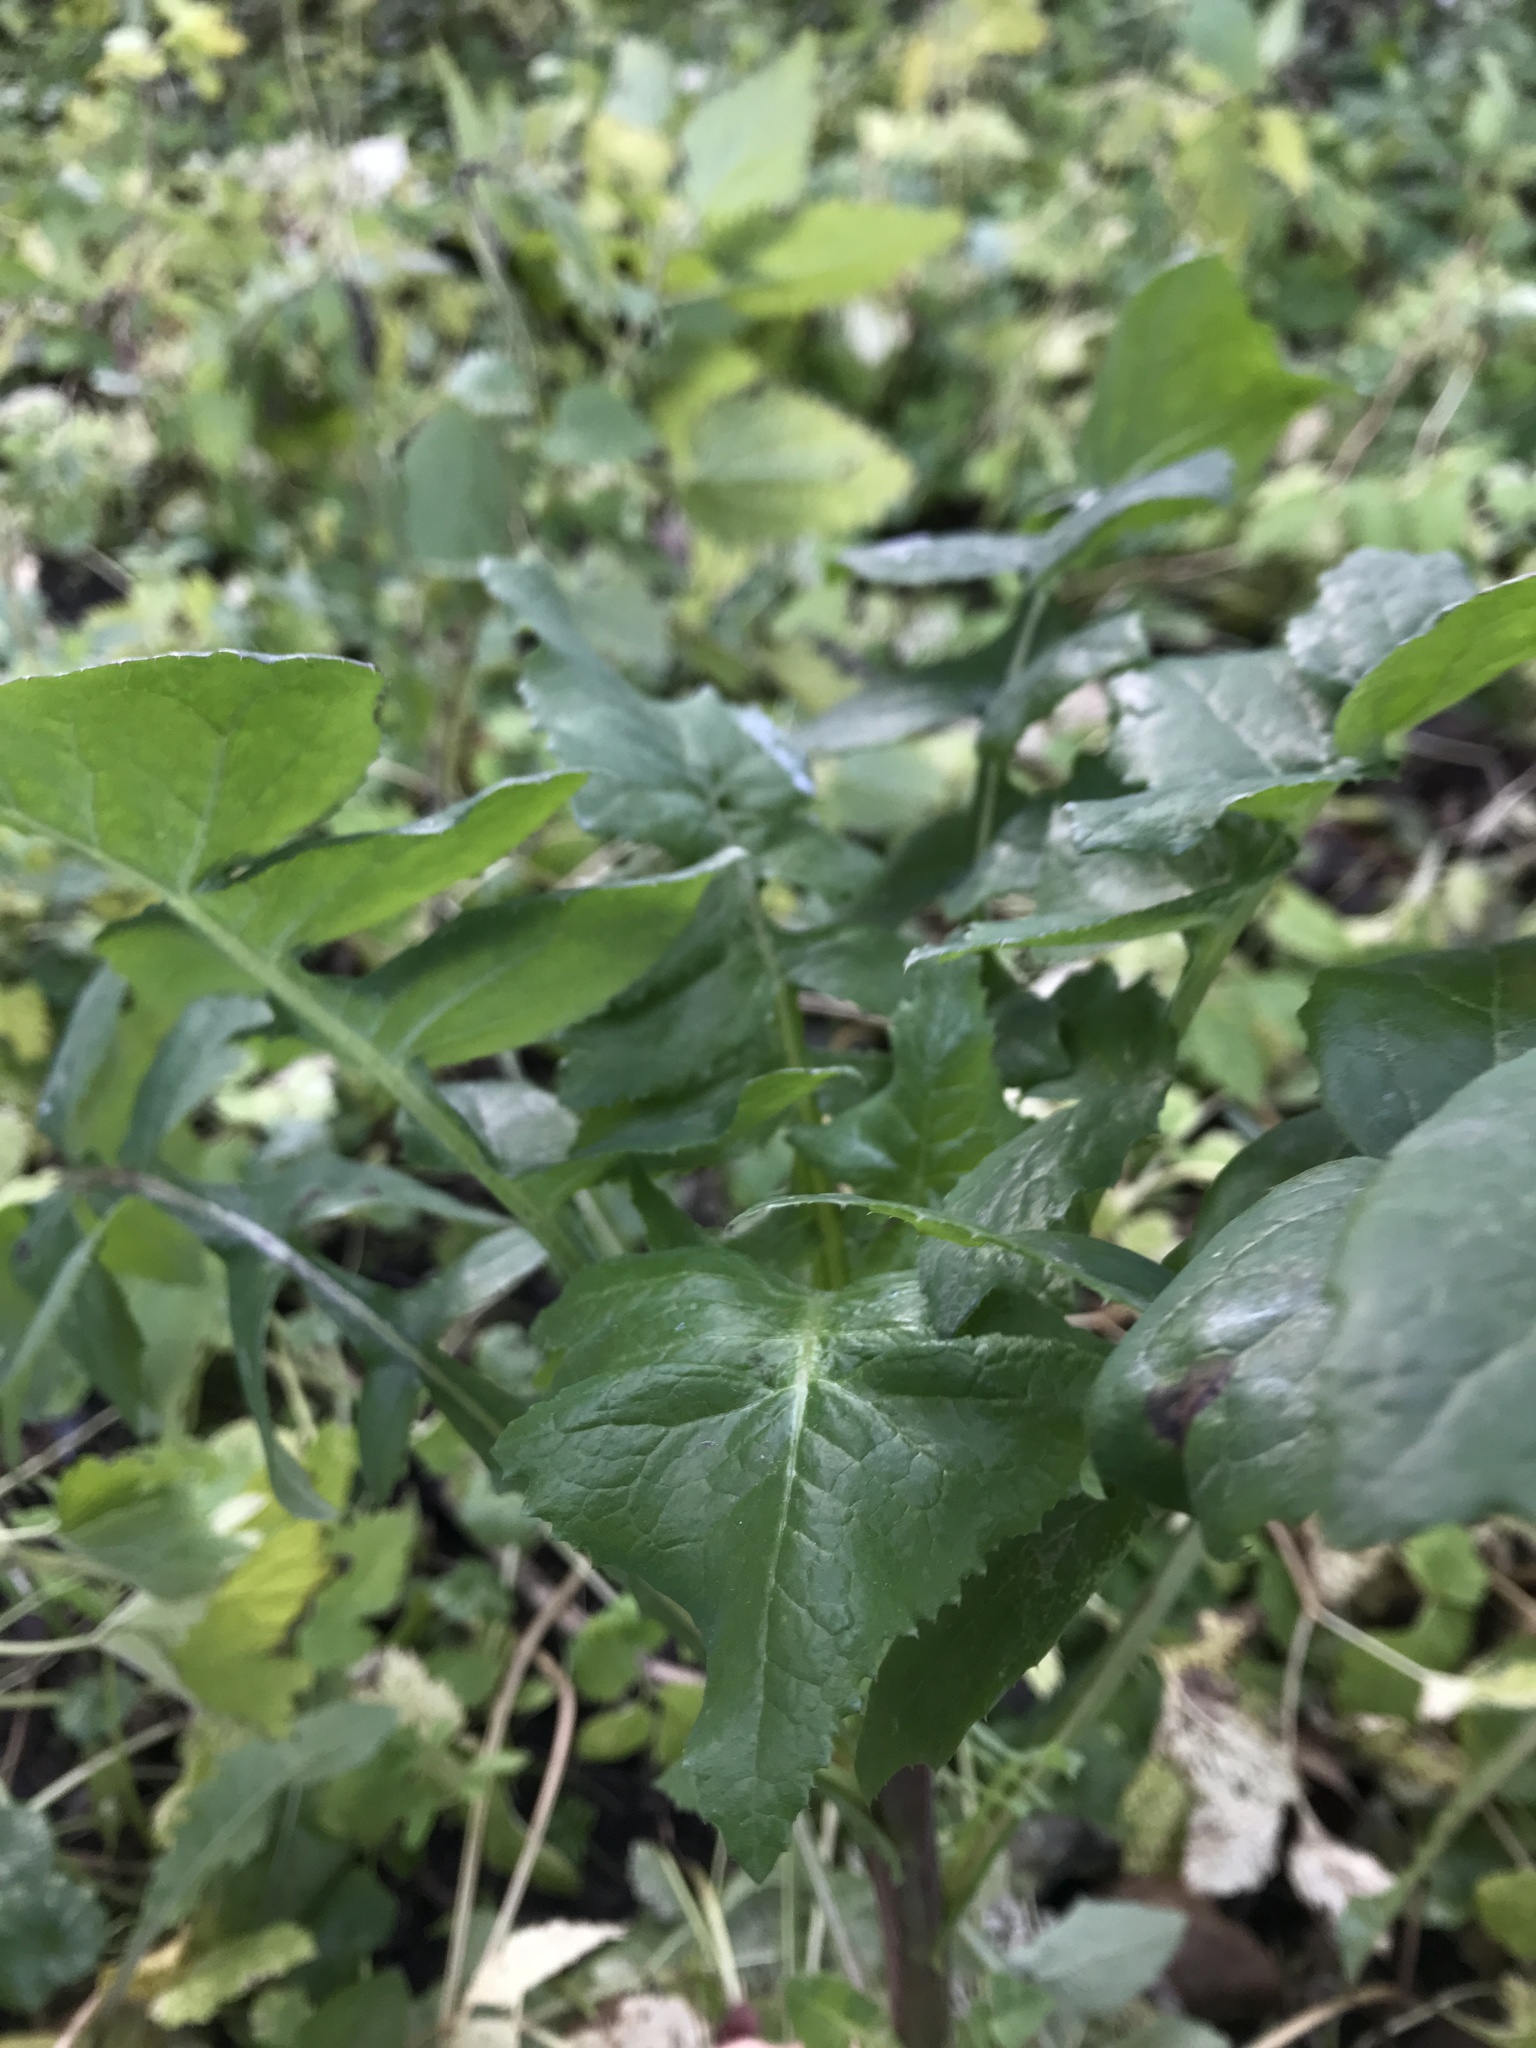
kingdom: Plantae
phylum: Tracheophyta
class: Magnoliopsida
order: Asterales
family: Asteraceae
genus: Sonchus
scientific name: Sonchus oleraceus
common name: Common sowthistle
